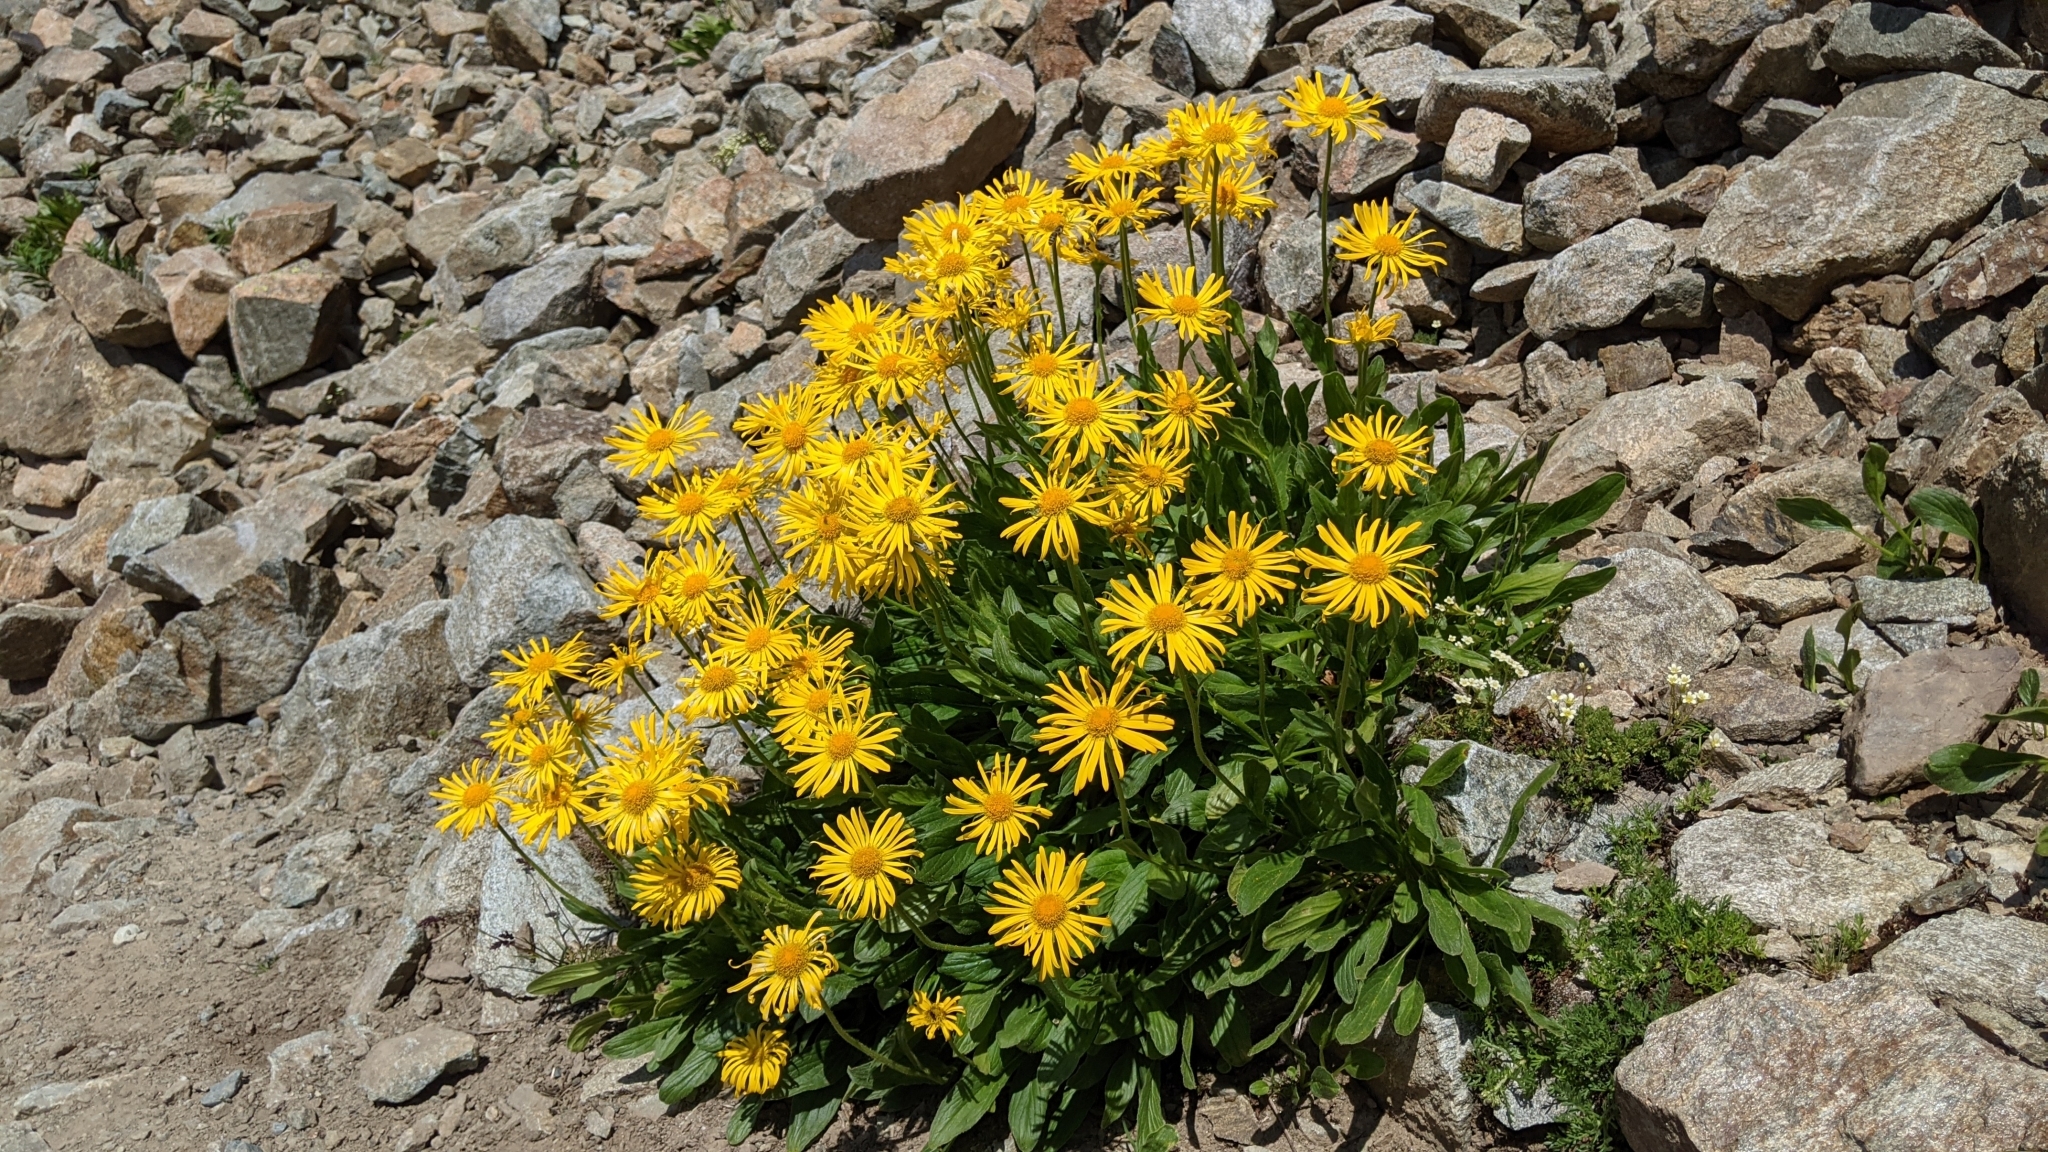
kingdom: Plantae
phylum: Tracheophyta
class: Magnoliopsida
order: Asterales
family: Asteraceae
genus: Doronicum
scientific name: Doronicum grandiflorum
